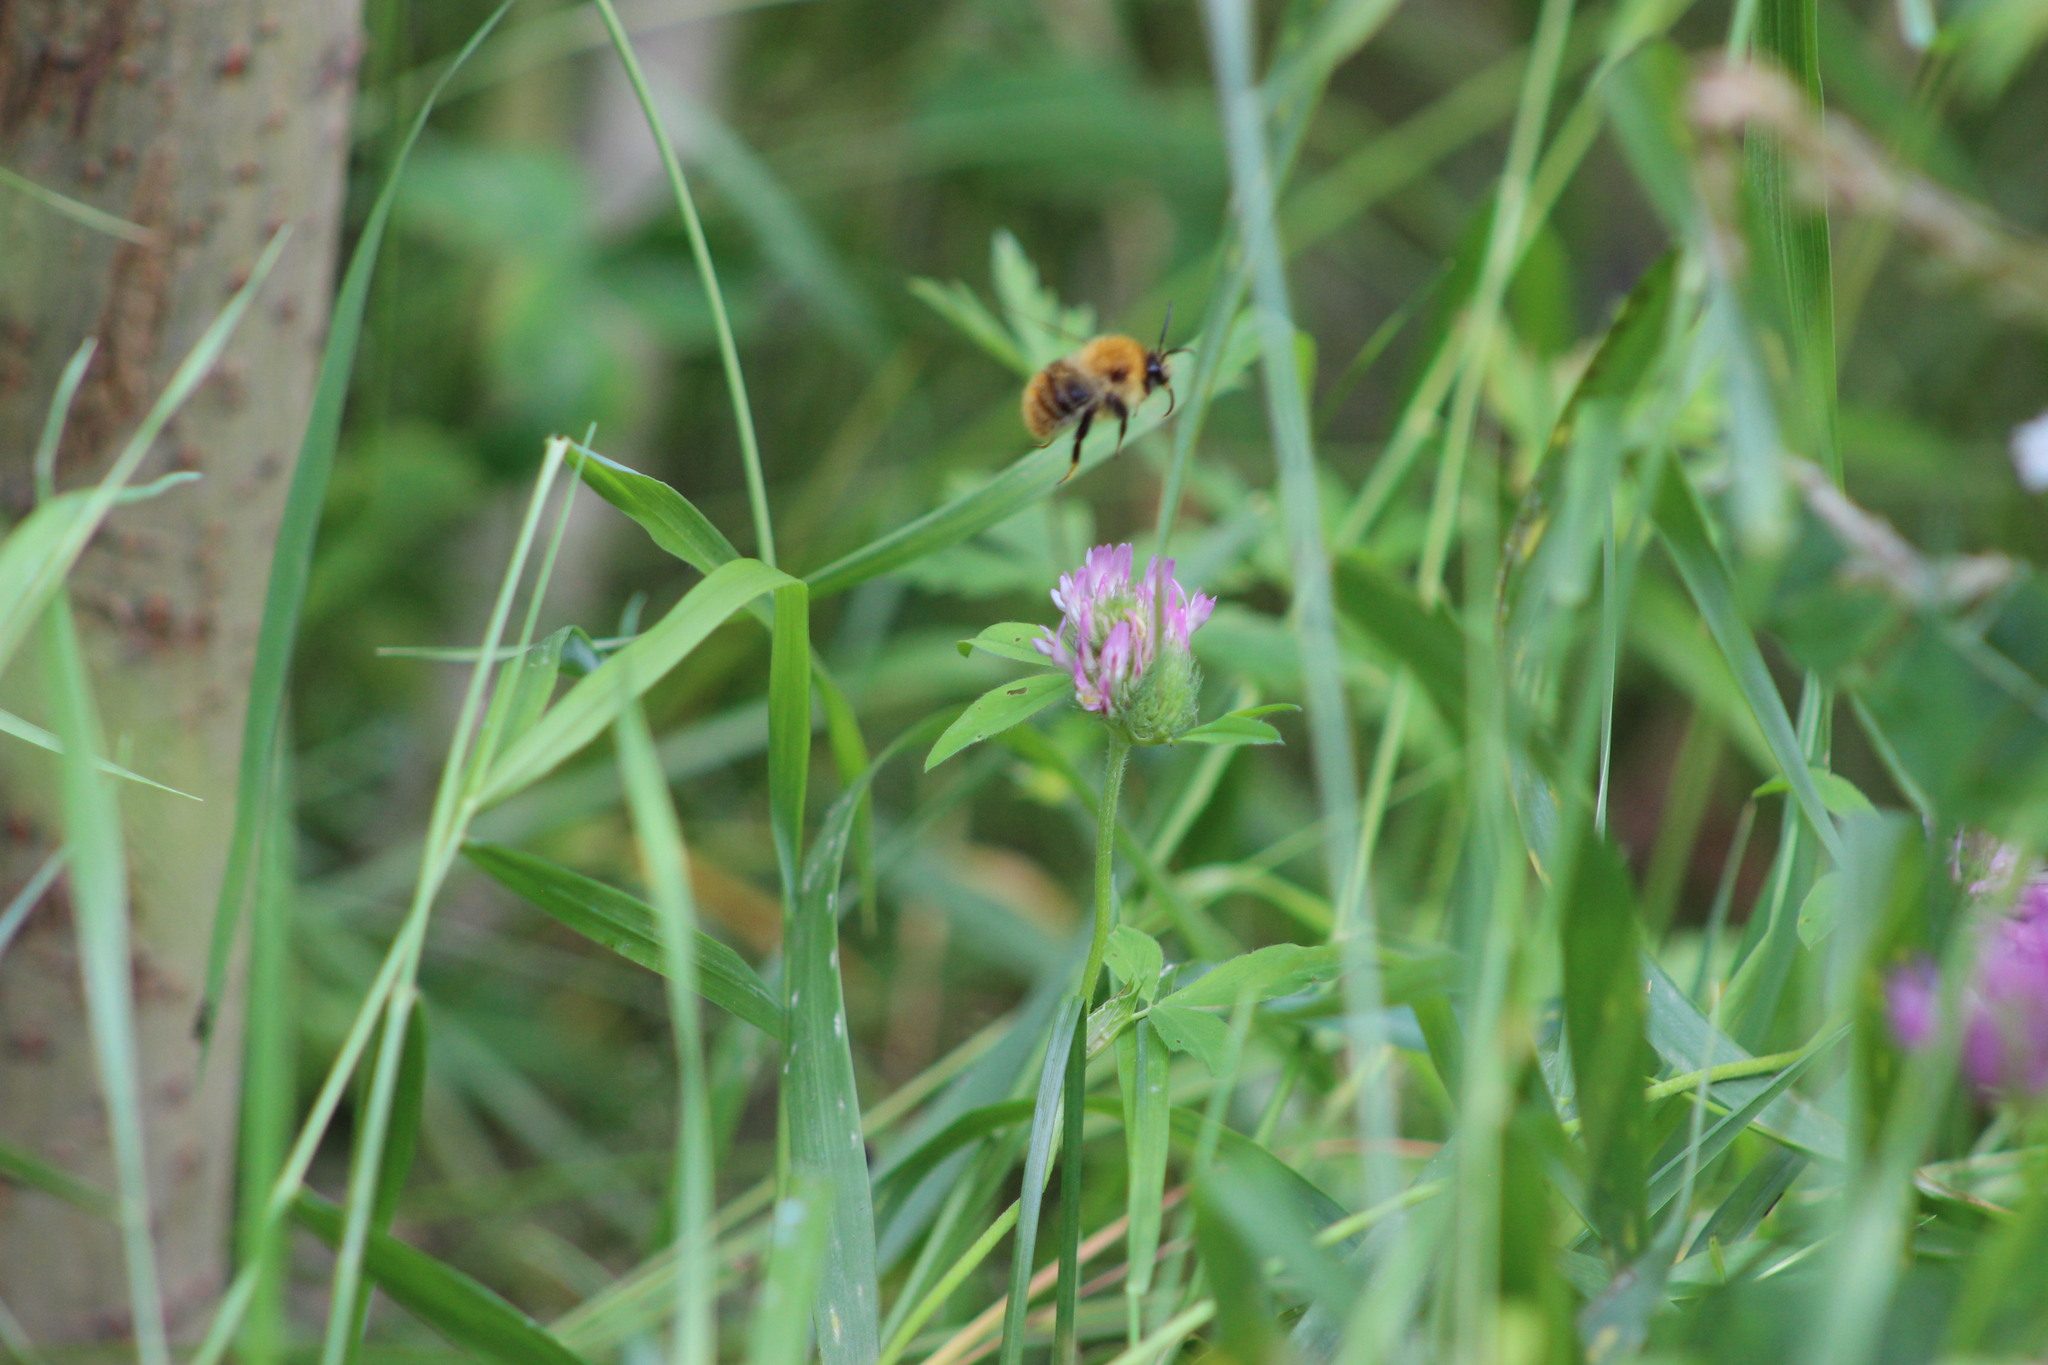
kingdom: Animalia
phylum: Arthropoda
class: Insecta
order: Hymenoptera
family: Apidae
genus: Bombus
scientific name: Bombus pascuorum
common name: Common carder bee
